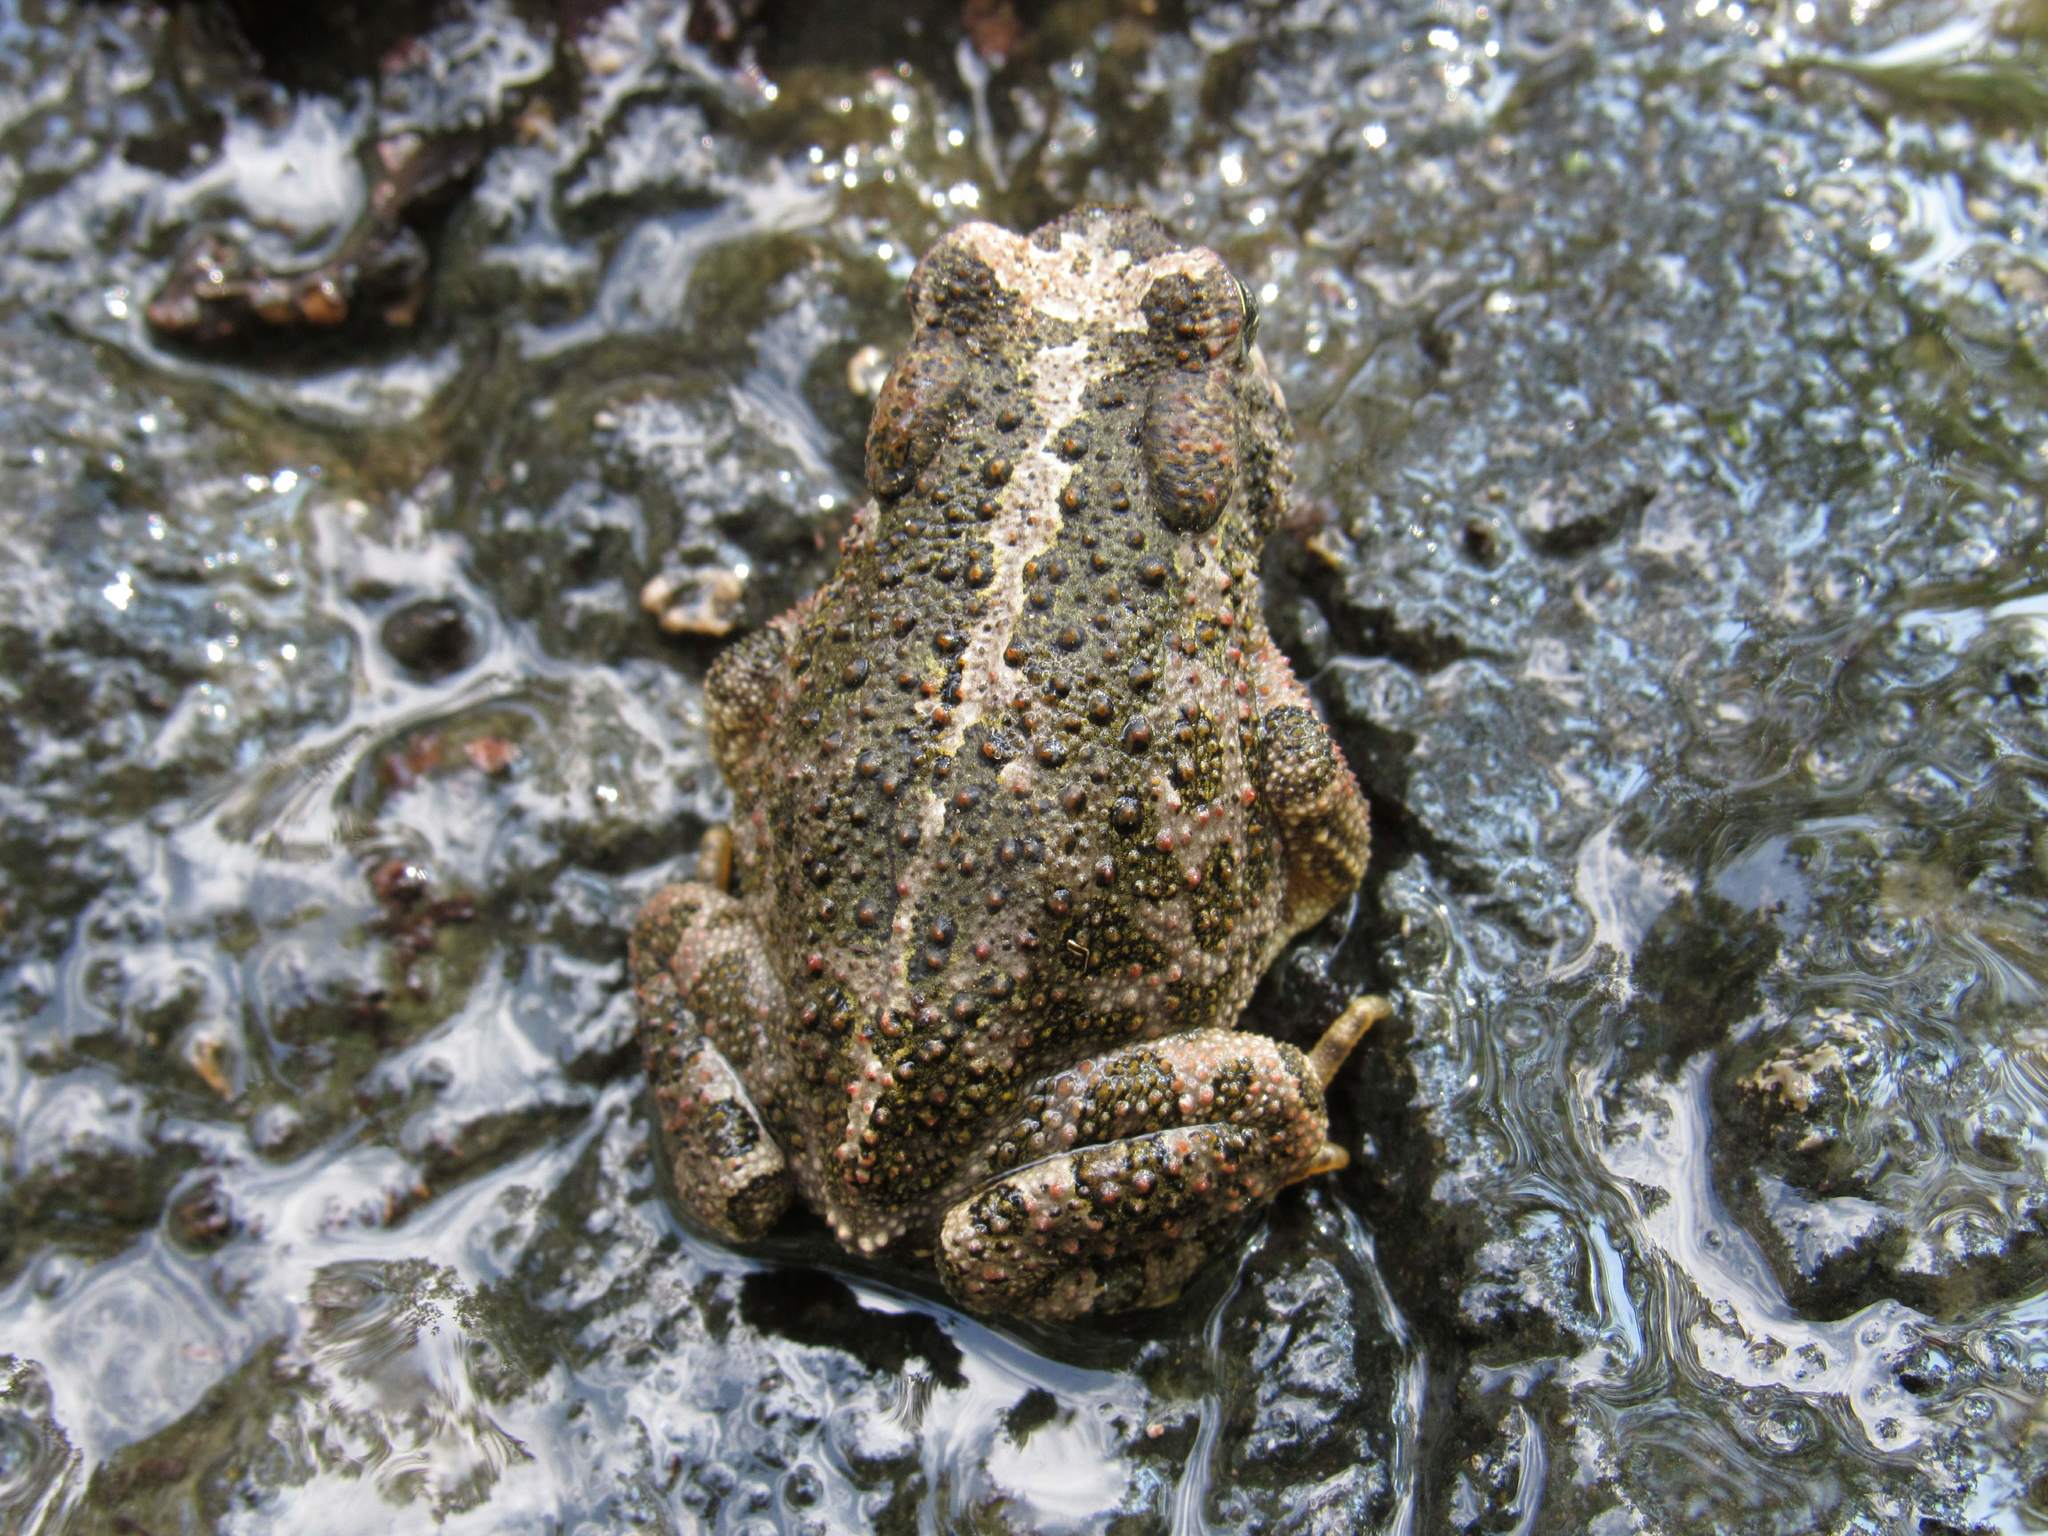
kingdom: Animalia
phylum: Chordata
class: Amphibia
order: Anura
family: Bufonidae
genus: Incilius
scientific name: Incilius occidentalis
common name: Pine toad
